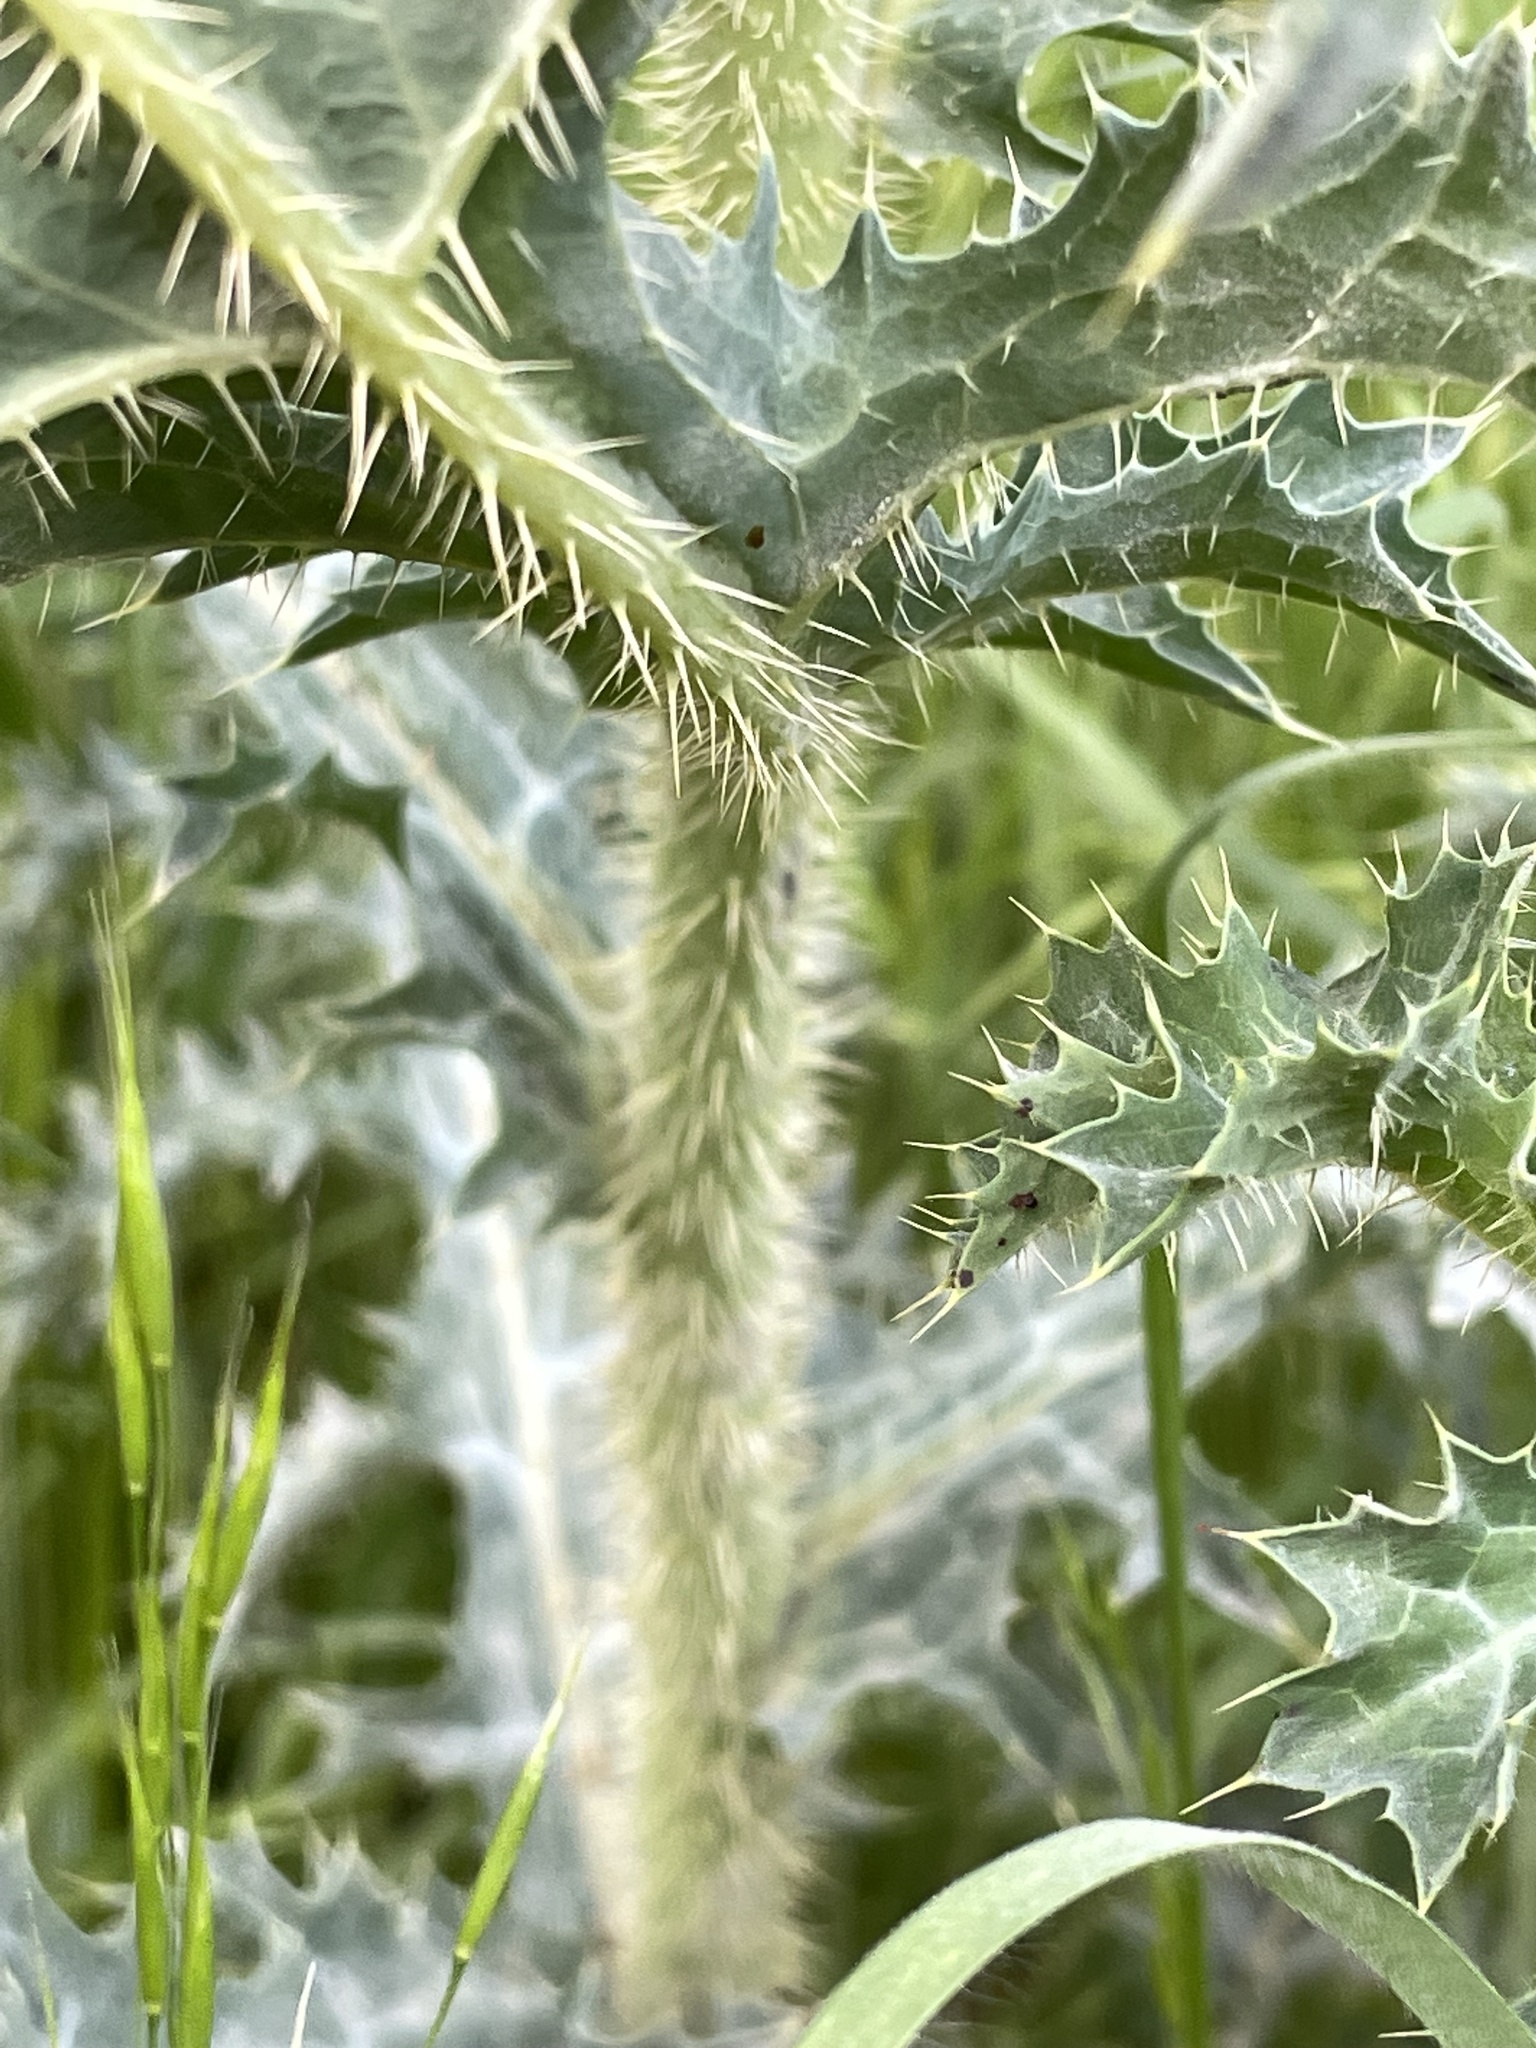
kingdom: Plantae
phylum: Tracheophyta
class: Magnoliopsida
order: Ranunculales
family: Papaveraceae
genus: Argemone
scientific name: Argemone aurantiaca
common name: Texas prickly-poppy
